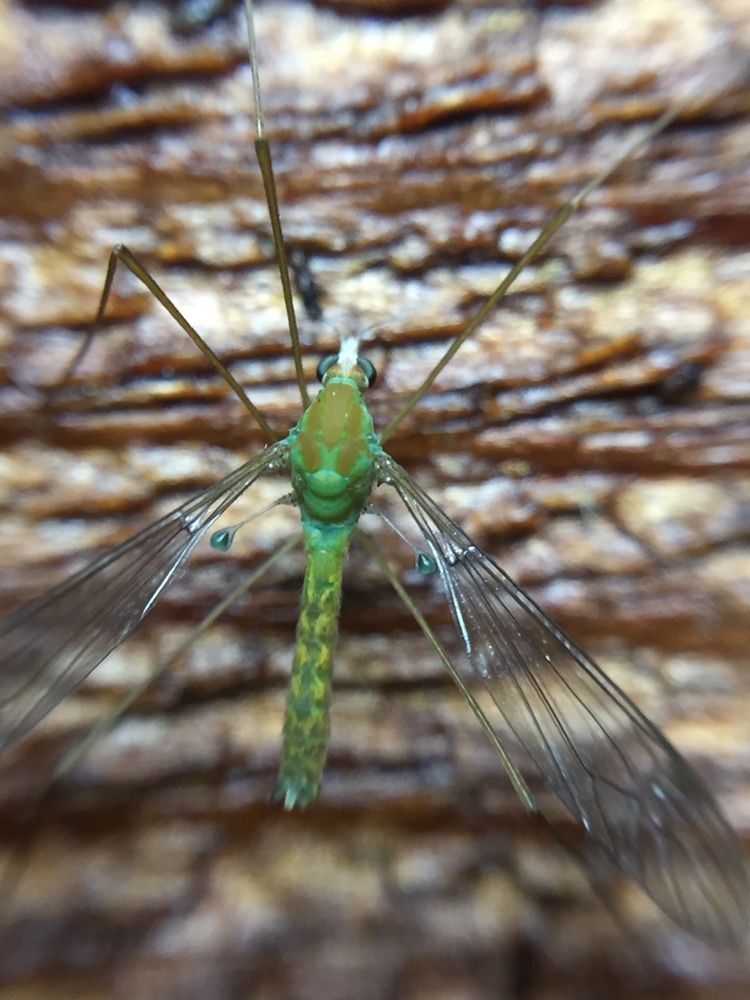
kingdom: Animalia
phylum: Arthropoda
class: Insecta
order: Diptera
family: Tipulidae
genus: Leptotarsus
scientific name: Leptotarsus virescens
